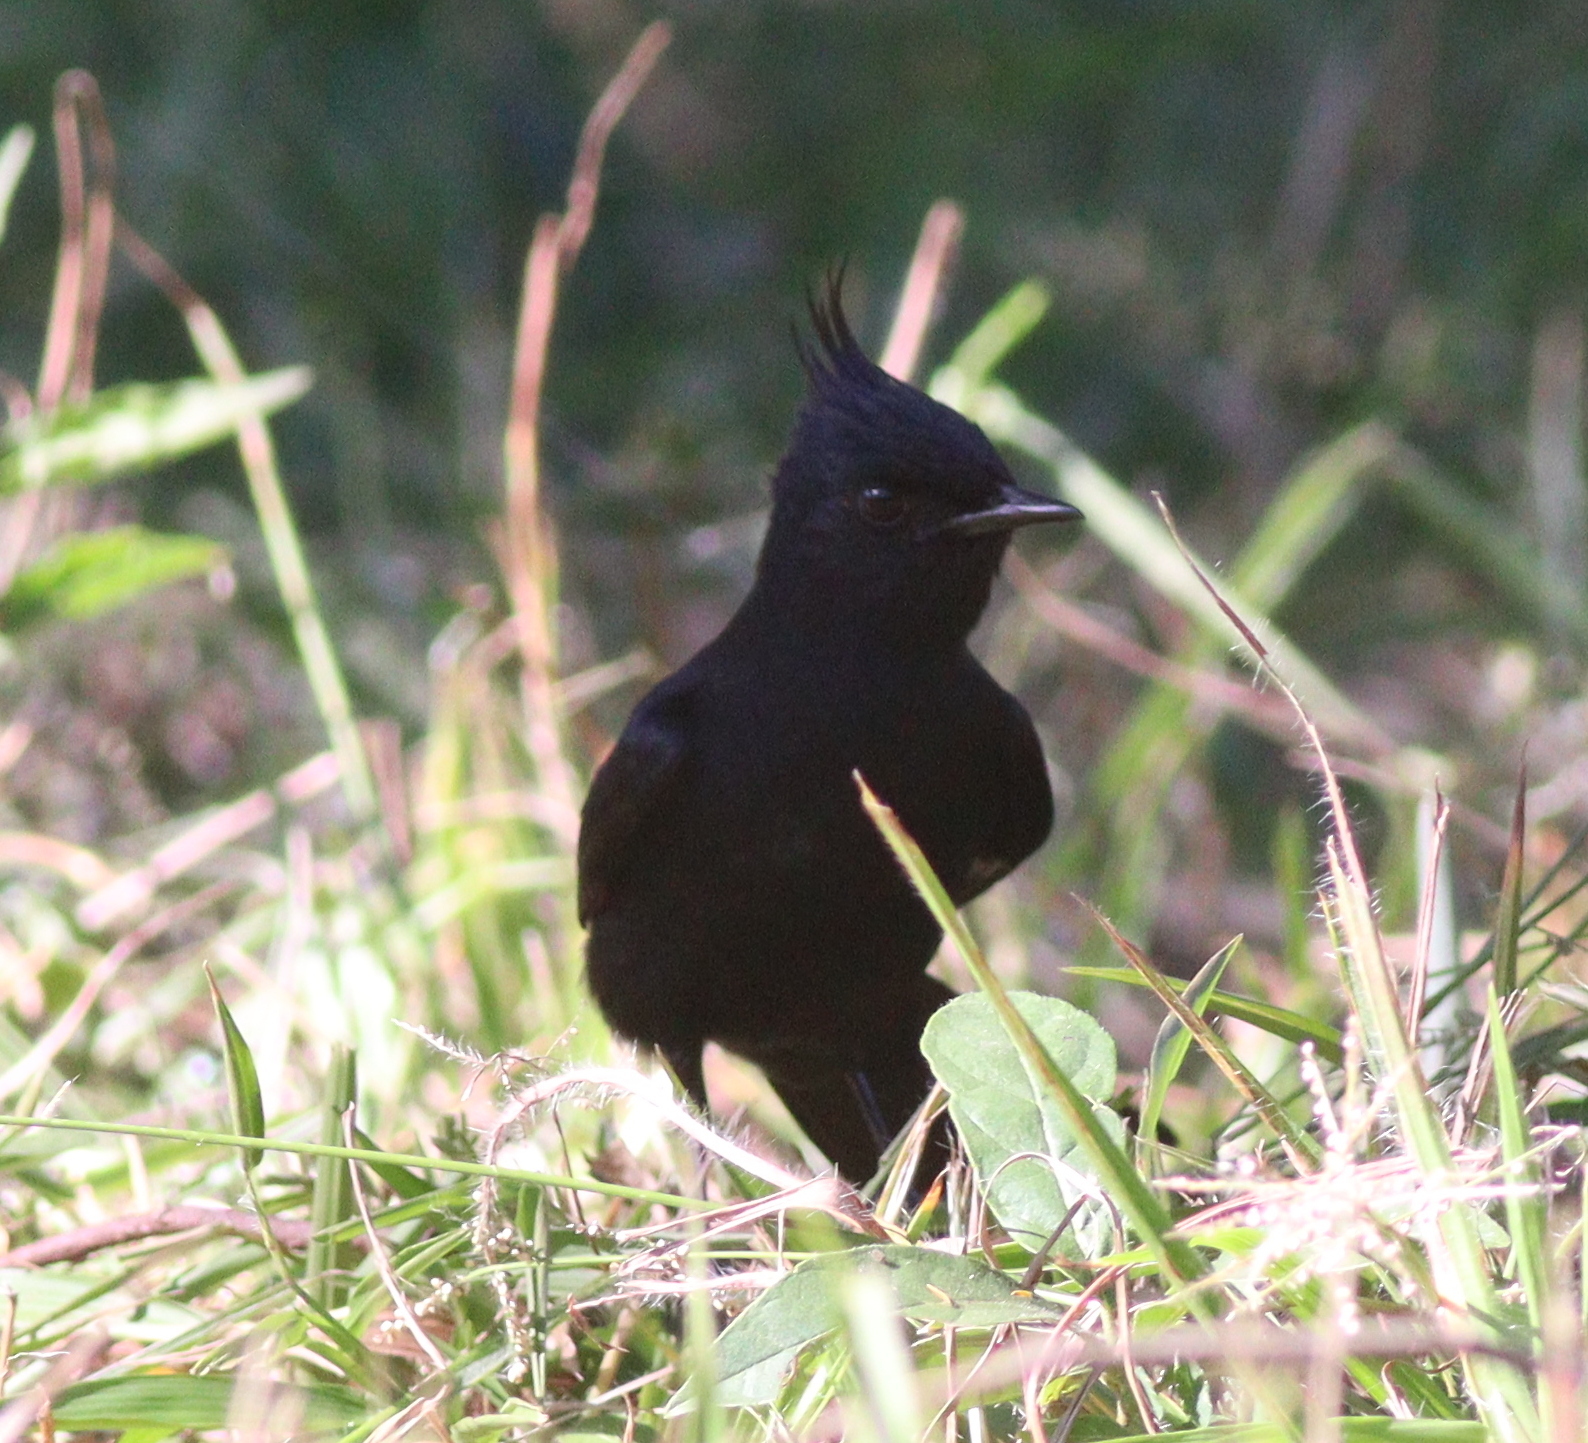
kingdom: Animalia
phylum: Chordata
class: Aves
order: Passeriformes
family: Tyrannidae
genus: Knipolegus
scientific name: Knipolegus lophotes
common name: Crested black tyrant
